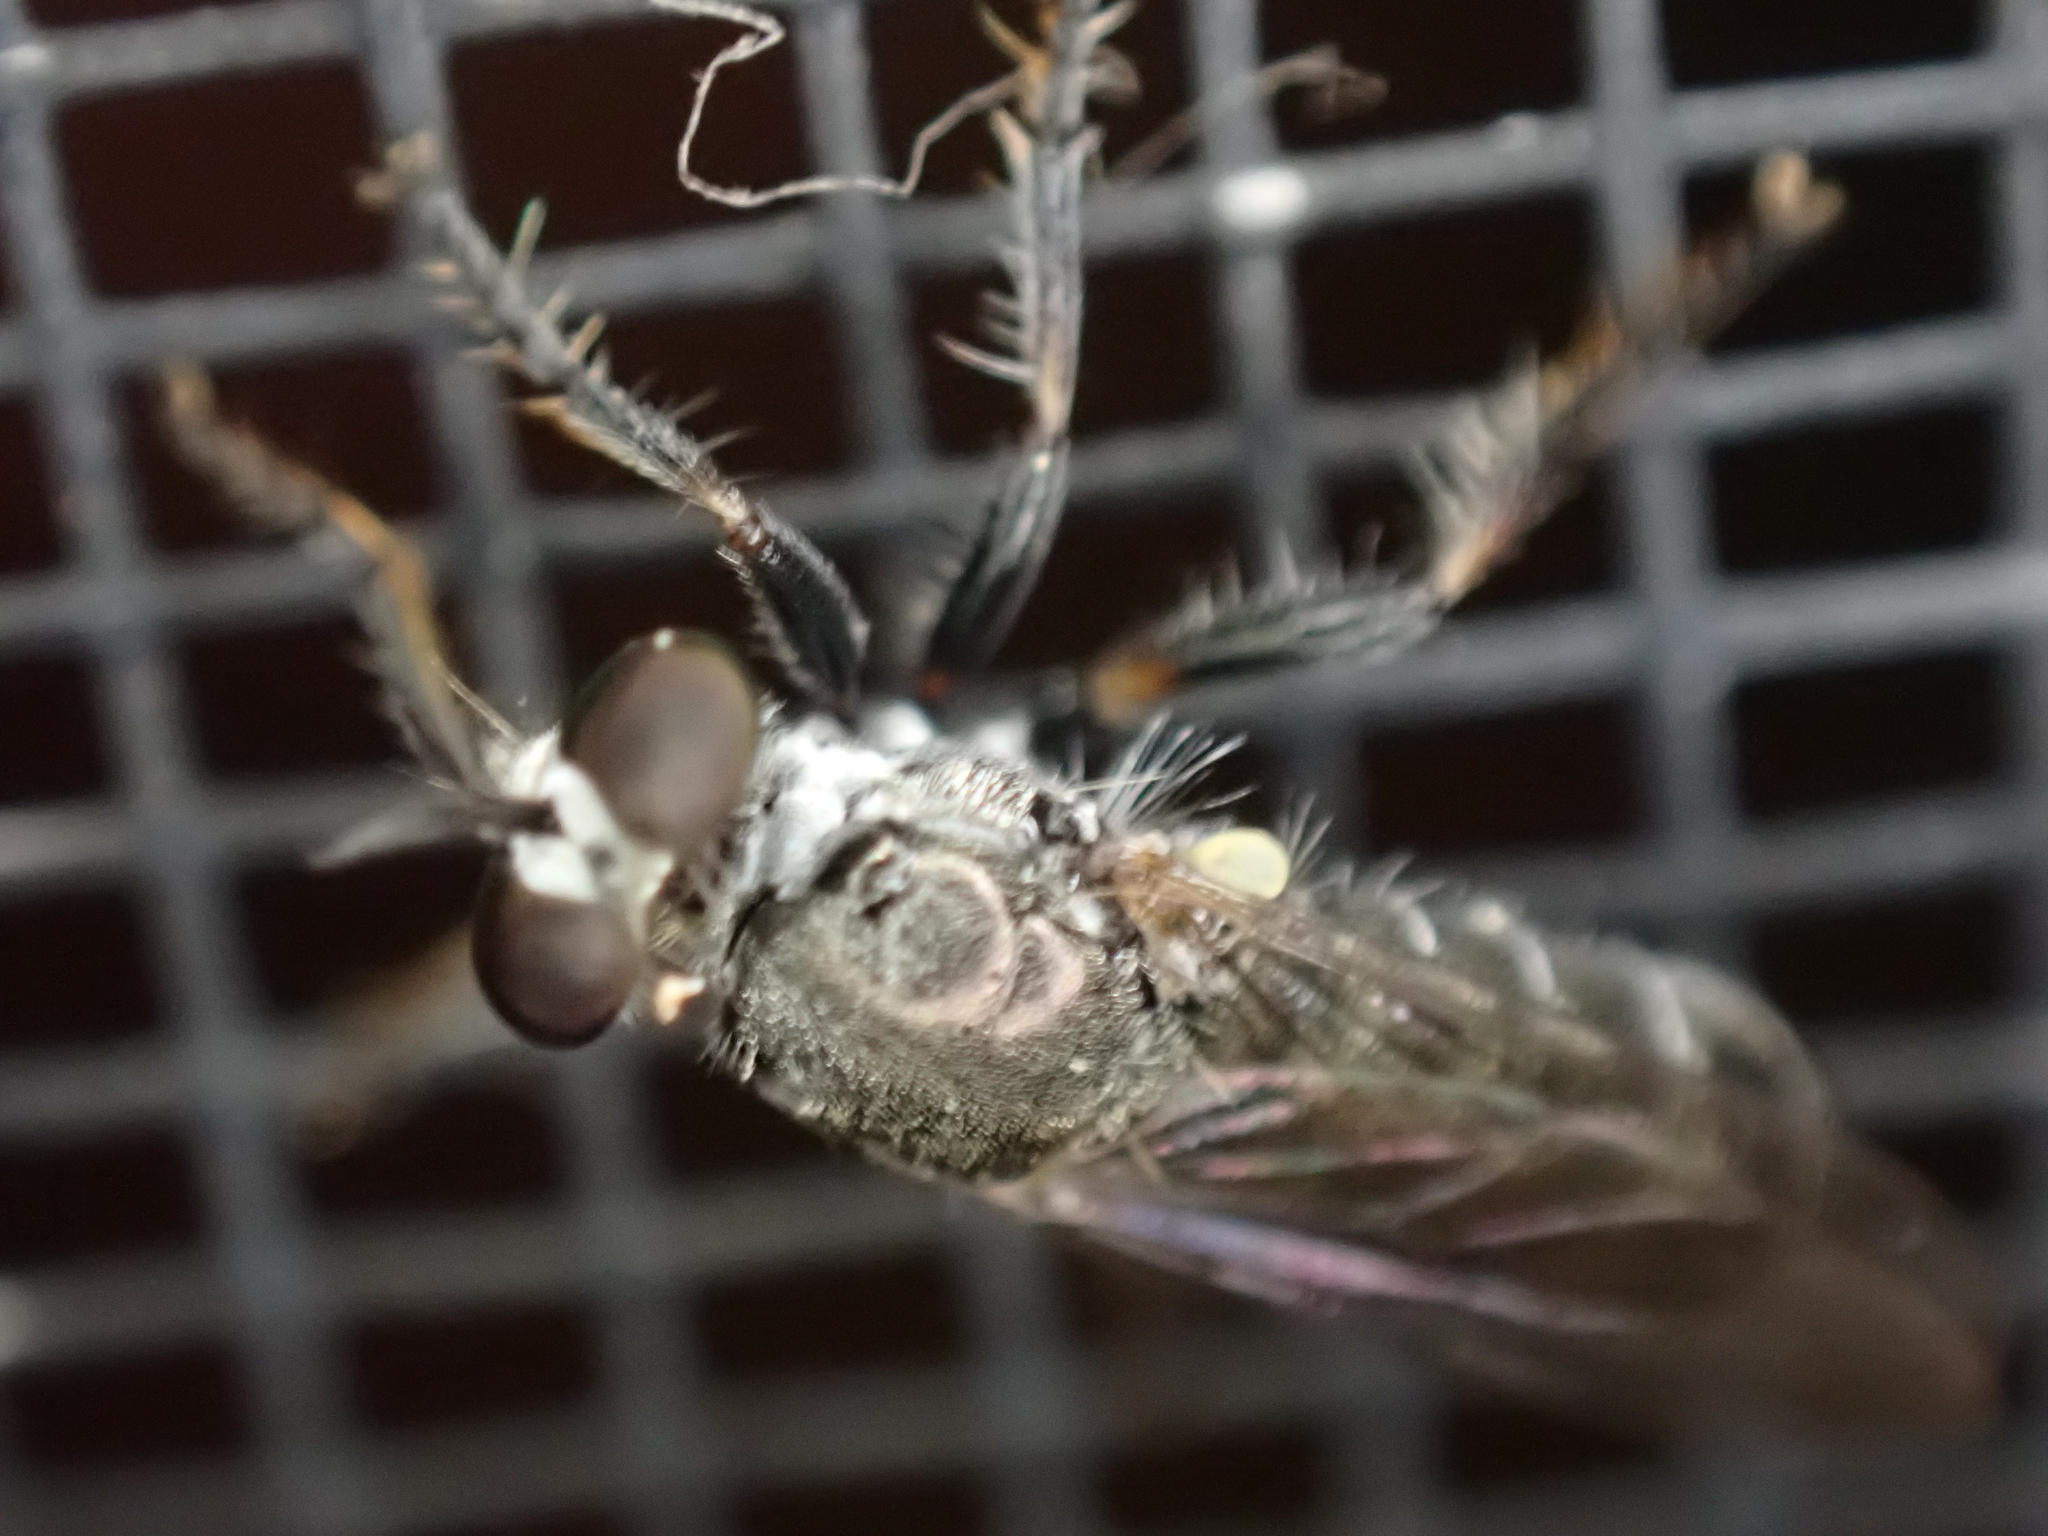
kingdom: Animalia
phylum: Arthropoda
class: Insecta
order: Diptera
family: Asilidae
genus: Atomosia
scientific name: Atomosia puella
